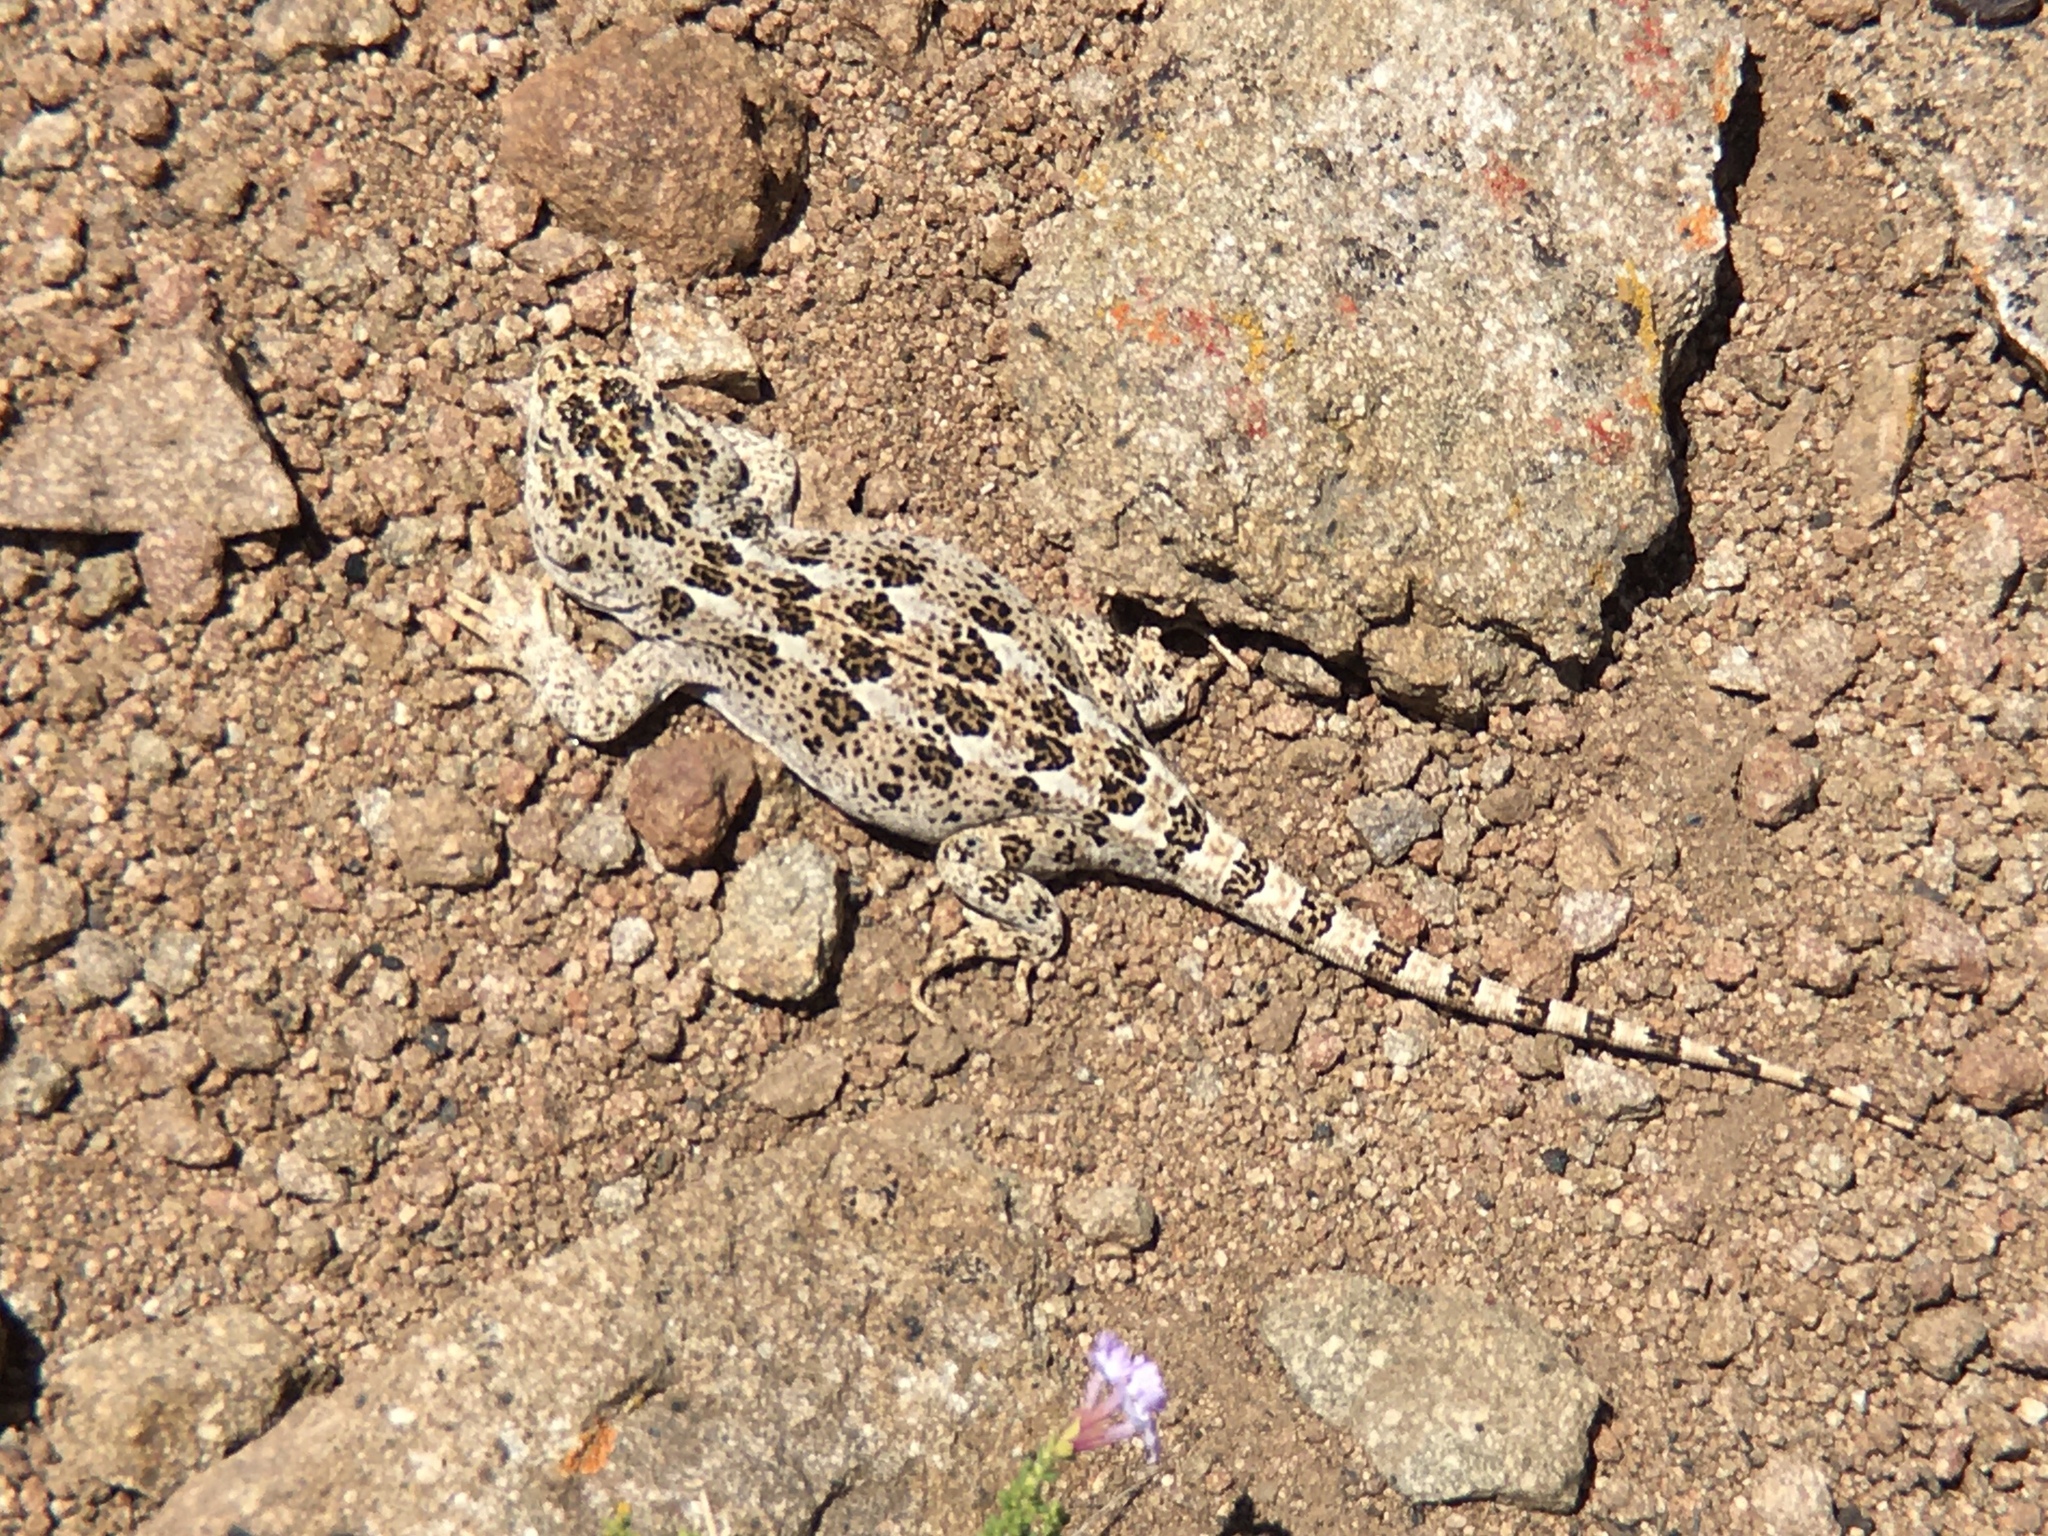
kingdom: Animalia
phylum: Chordata
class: Squamata
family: Leiosauridae
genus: Diplolaemus
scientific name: Diplolaemus leopardinus
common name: Leopard iguana
